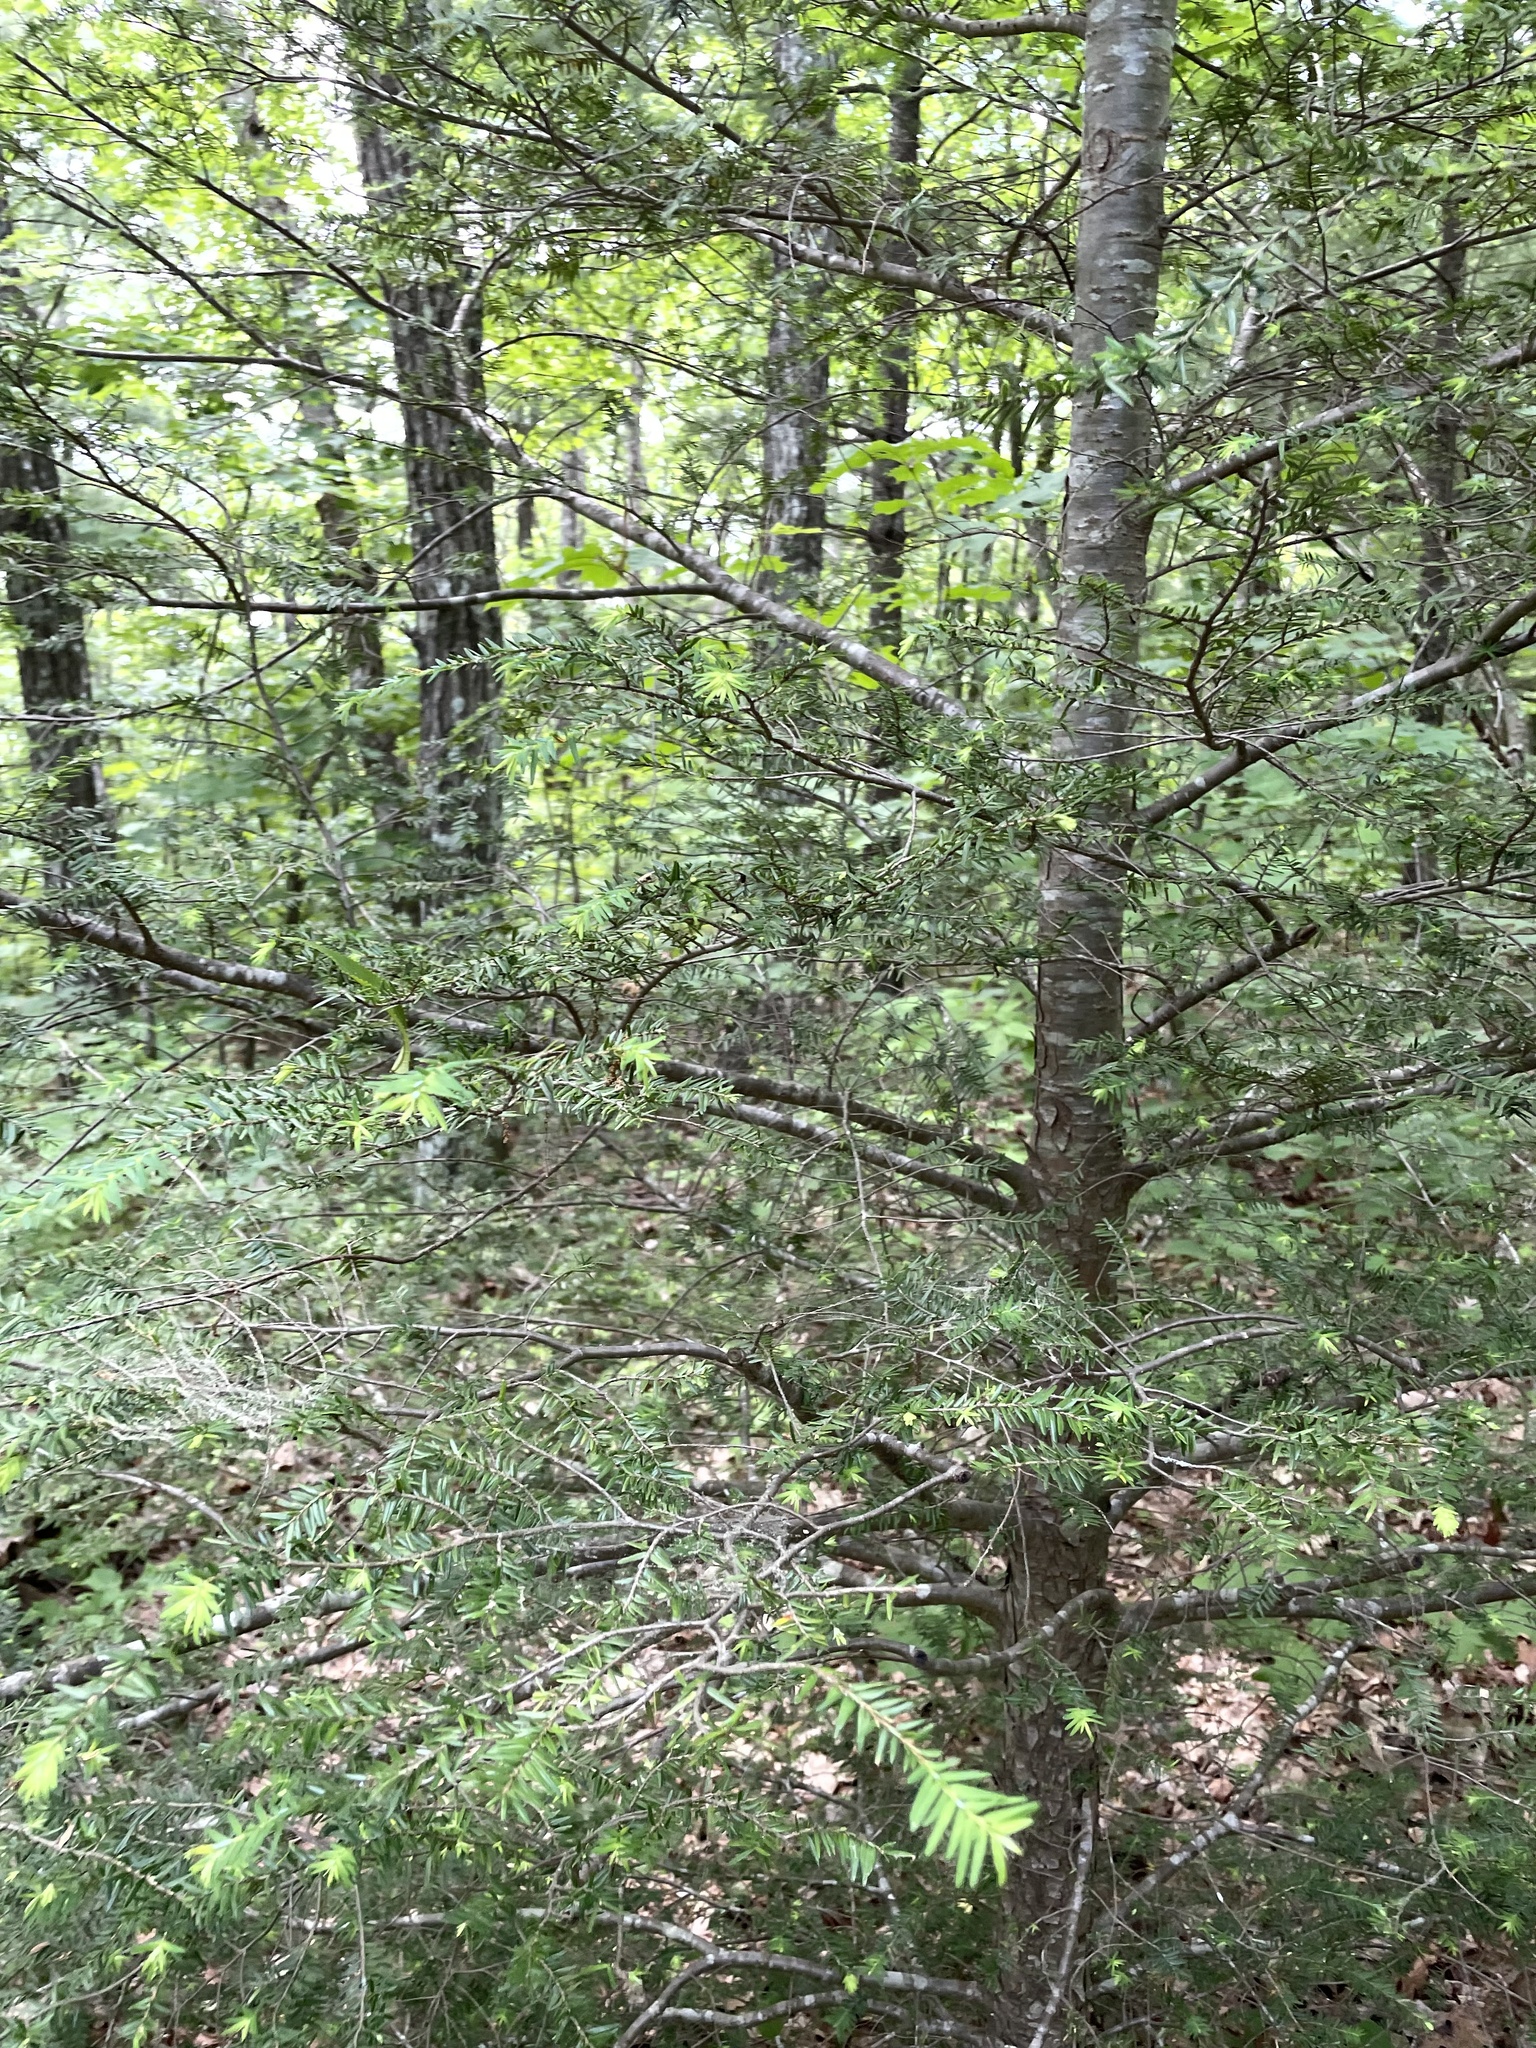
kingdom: Plantae
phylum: Tracheophyta
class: Pinopsida
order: Pinales
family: Pinaceae
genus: Tsuga
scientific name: Tsuga canadensis
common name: Eastern hemlock
